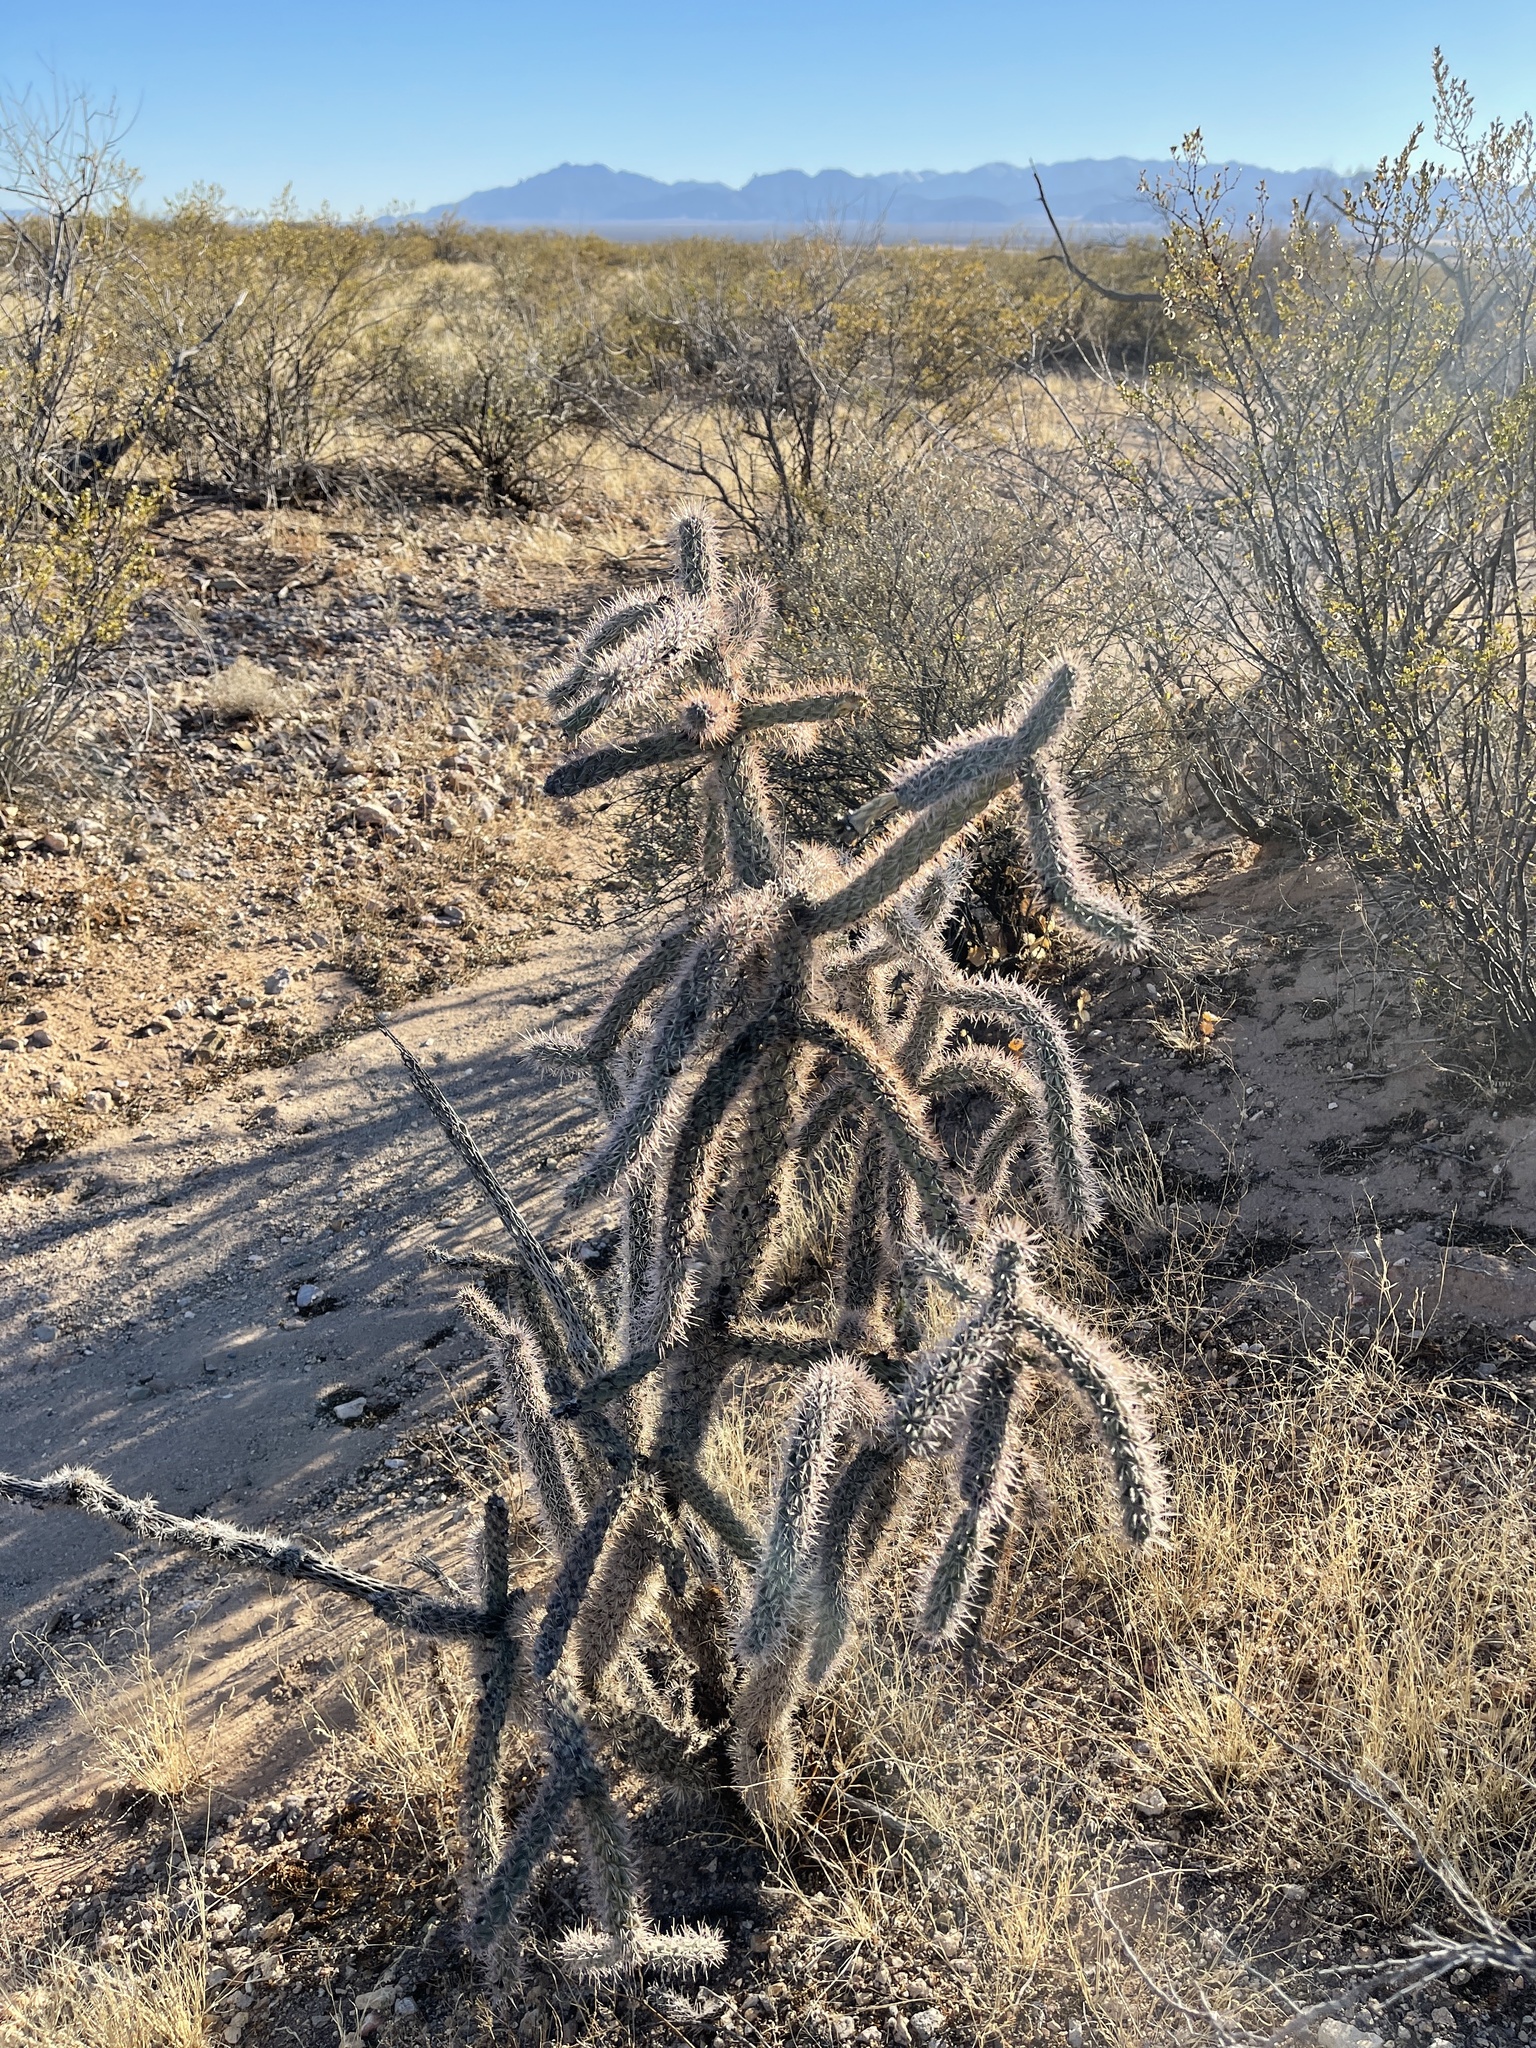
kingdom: Plantae
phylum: Tracheophyta
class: Magnoliopsida
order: Caryophyllales
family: Cactaceae
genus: Cylindropuntia
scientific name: Cylindropuntia imbricata
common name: Candelabrum cactus
